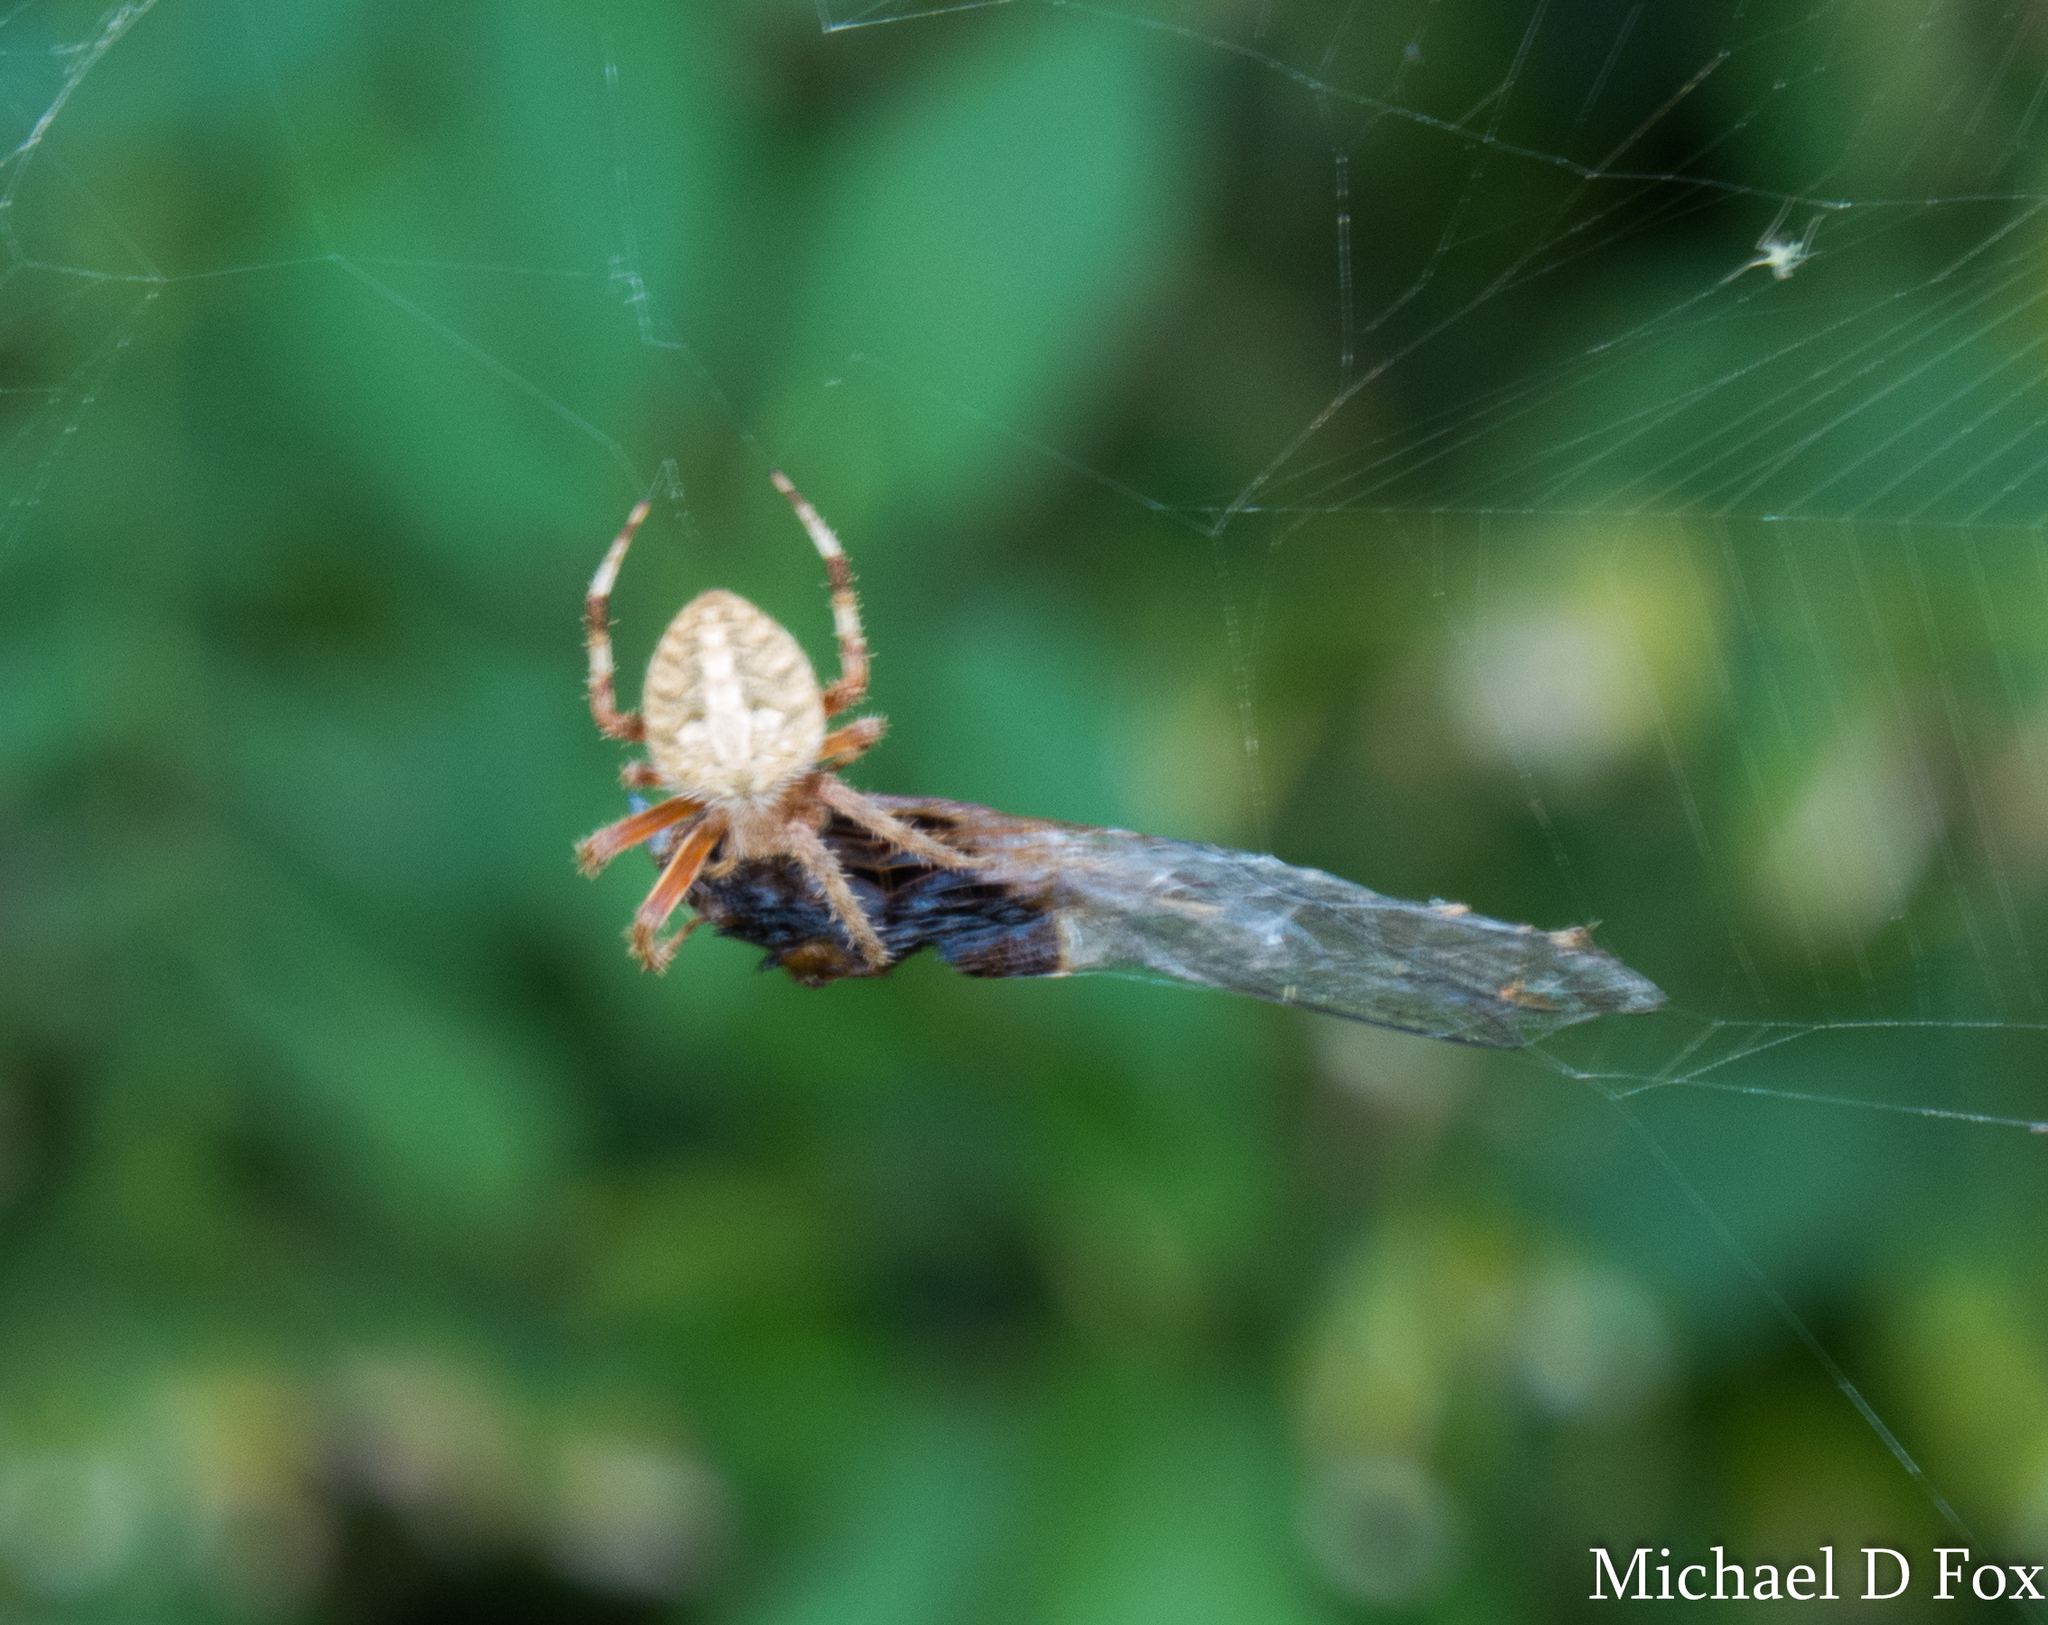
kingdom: Animalia
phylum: Arthropoda
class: Arachnida
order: Araneae
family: Araneidae
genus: Neoscona
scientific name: Neoscona crucifera
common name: Spotted orbweaver
